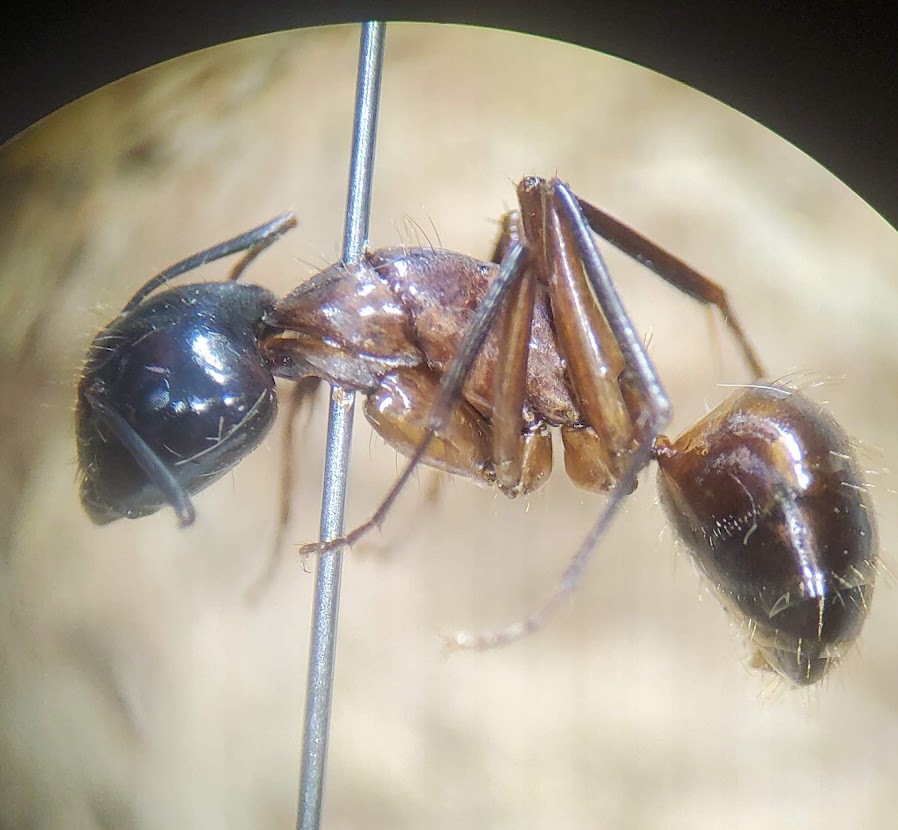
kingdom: Animalia
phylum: Arthropoda
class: Insecta
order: Hymenoptera
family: Formicidae
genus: Camponotus
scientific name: Camponotus americanus
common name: American carpenter ant
